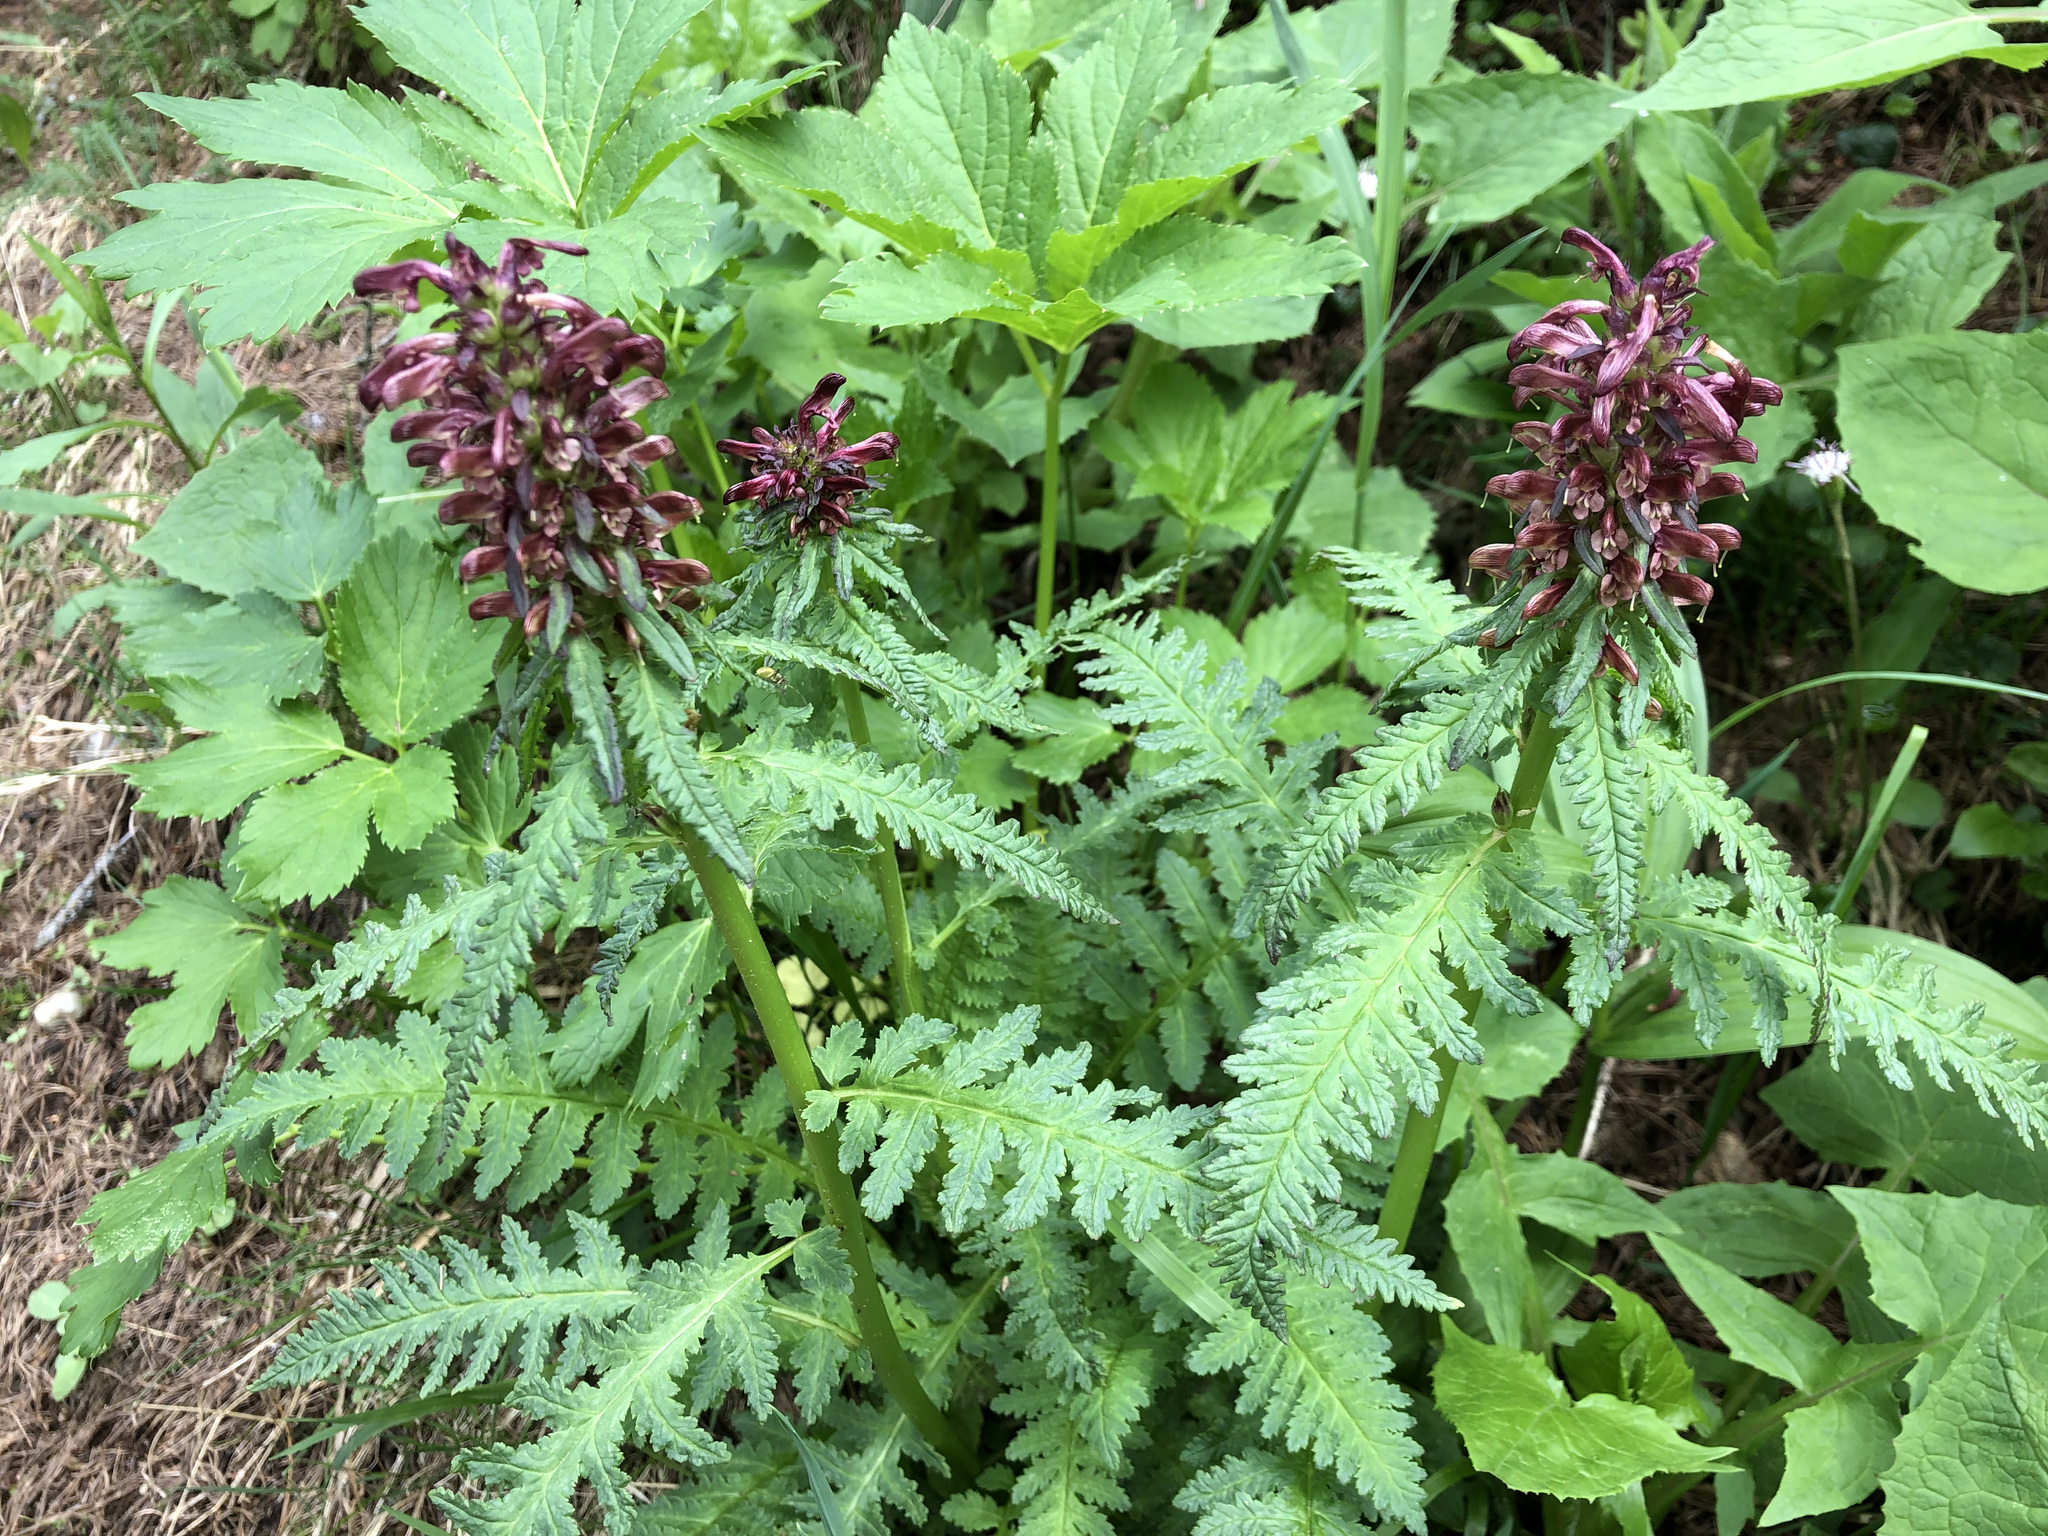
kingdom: Plantae
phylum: Tracheophyta
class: Magnoliopsida
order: Lamiales
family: Orobanchaceae
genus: Pedicularis
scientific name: Pedicularis recutita
